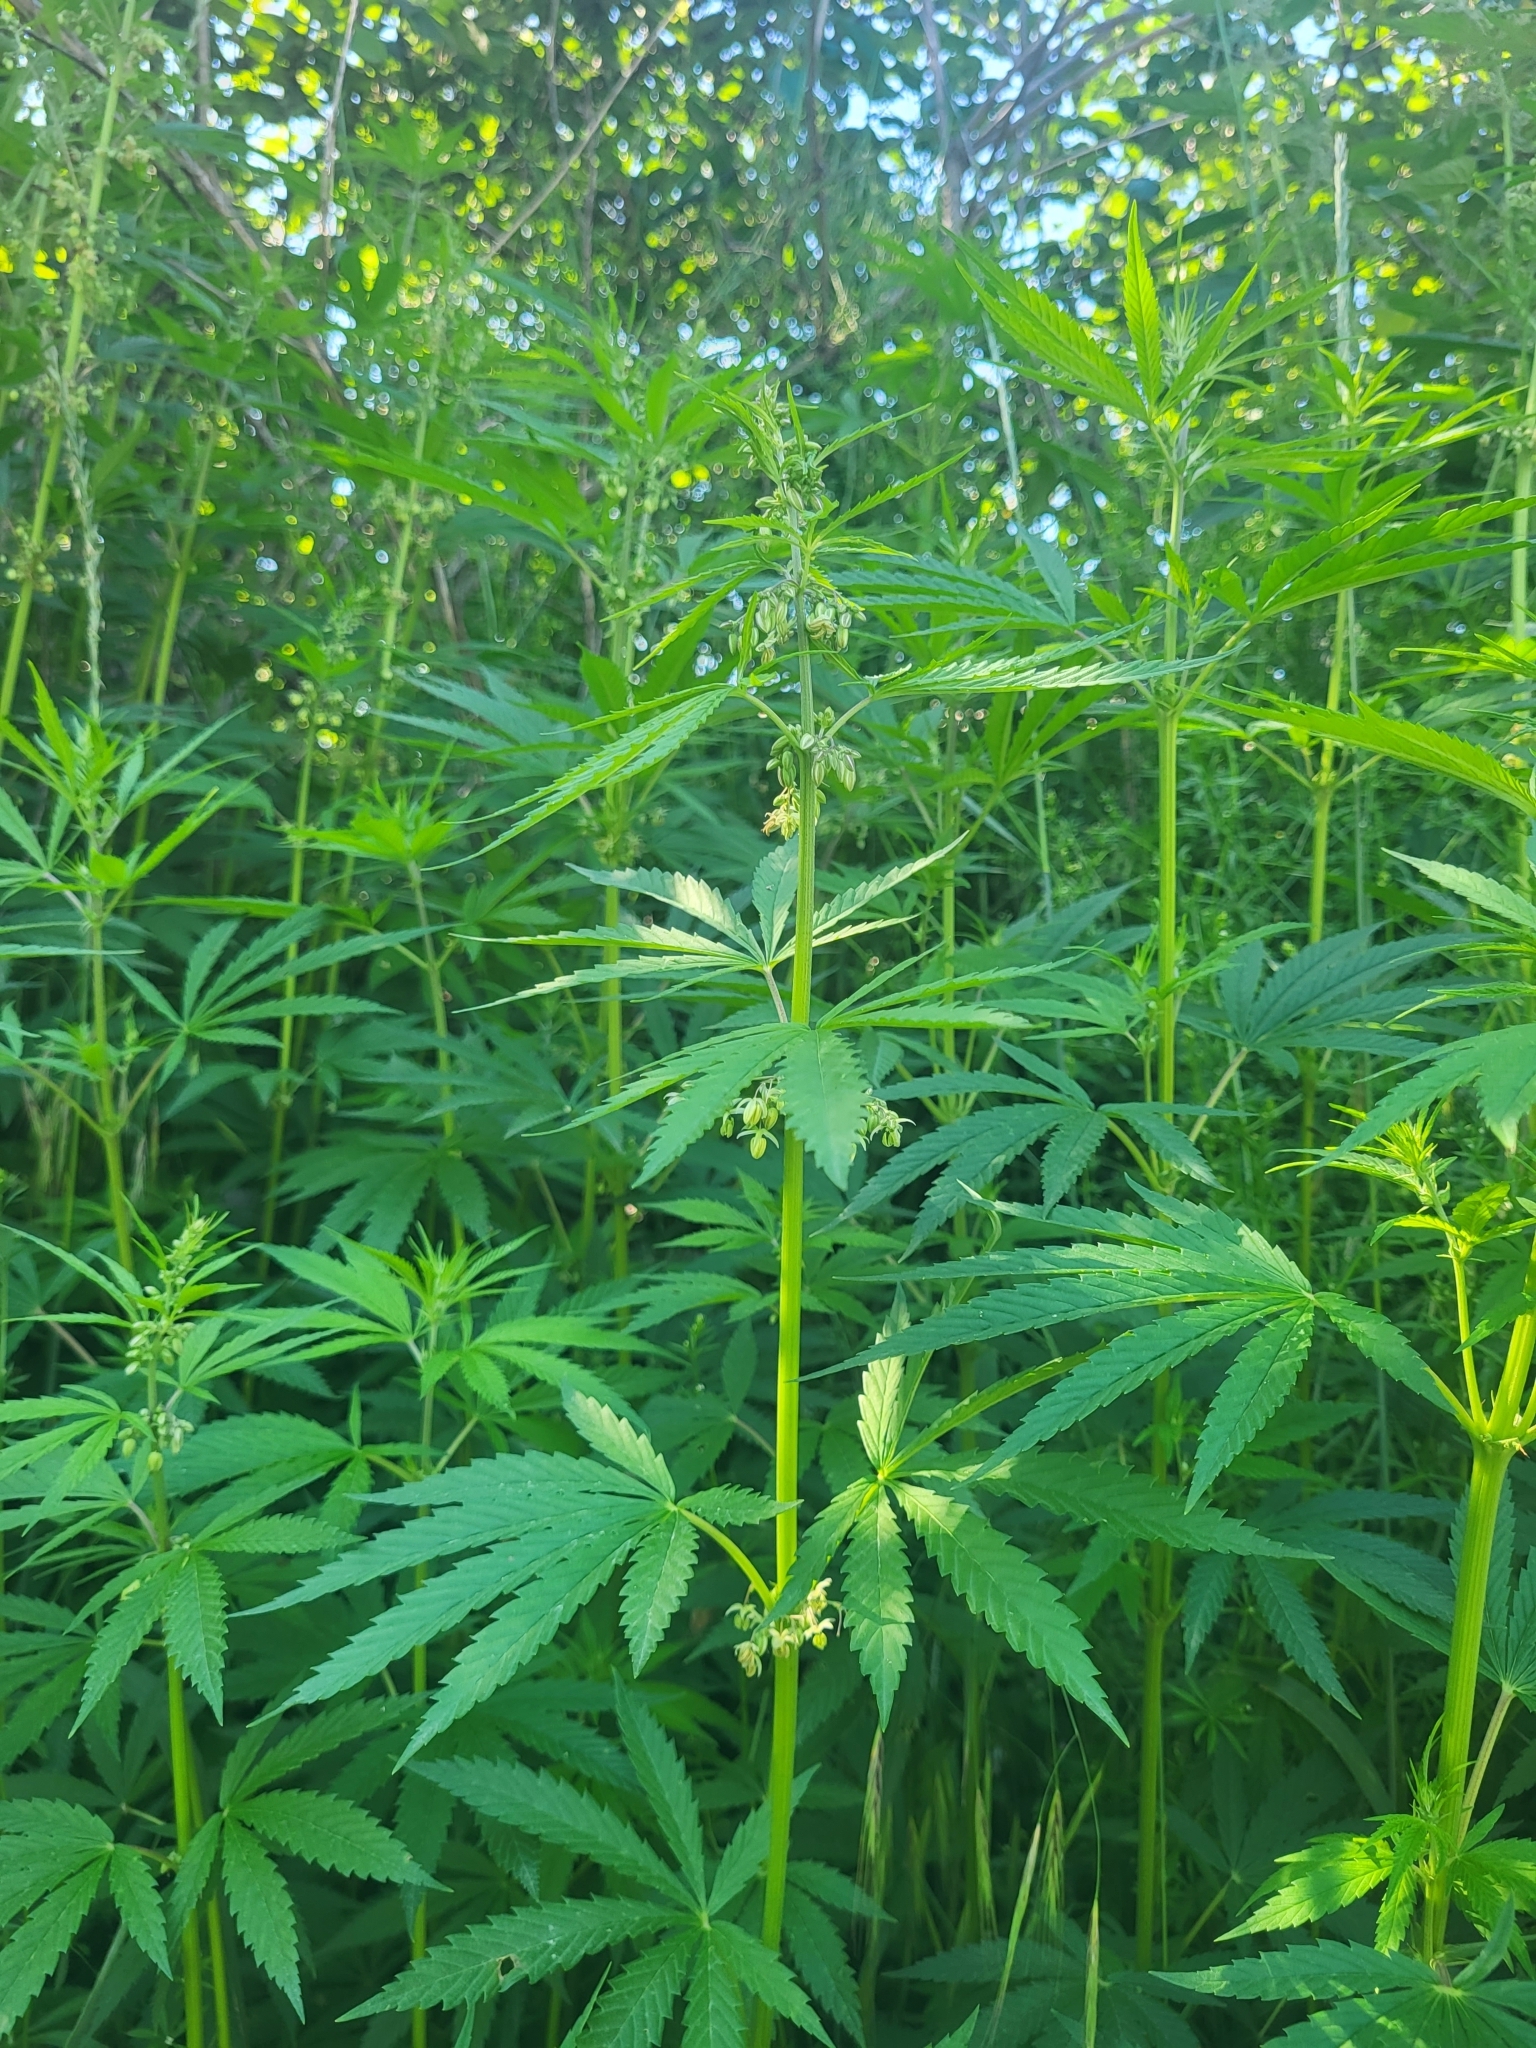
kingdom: Plantae
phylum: Tracheophyta
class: Magnoliopsida
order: Rosales
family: Cannabaceae
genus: Cannabis
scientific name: Cannabis sativa
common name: Hemp
